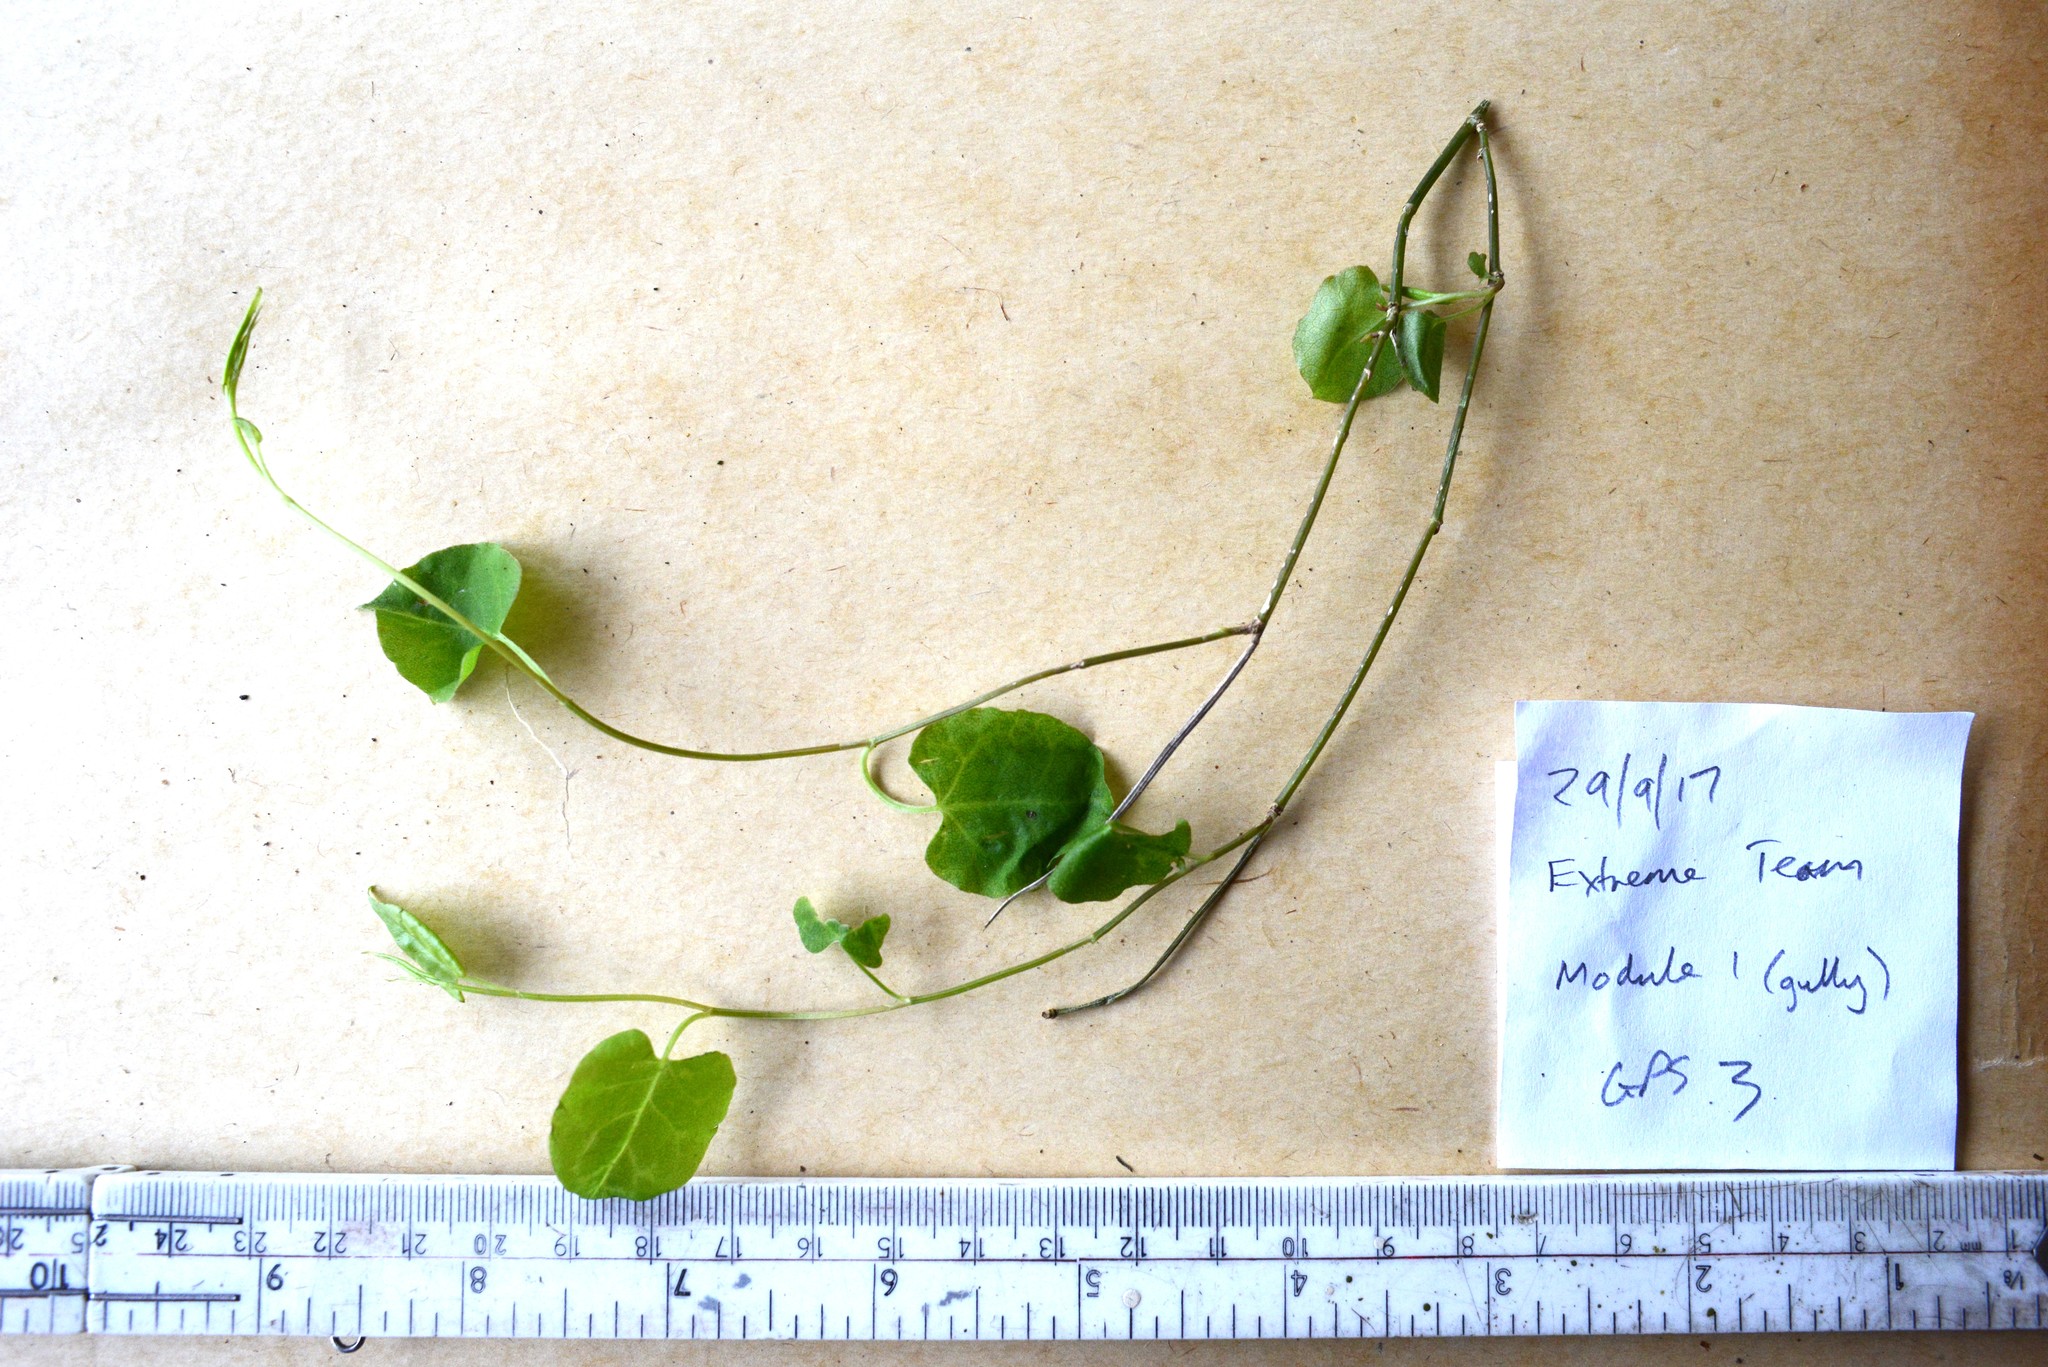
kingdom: Plantae
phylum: Tracheophyta
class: Magnoliopsida
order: Caryophyllales
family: Polygonaceae
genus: Muehlenbeckia
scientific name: Muehlenbeckia australis
